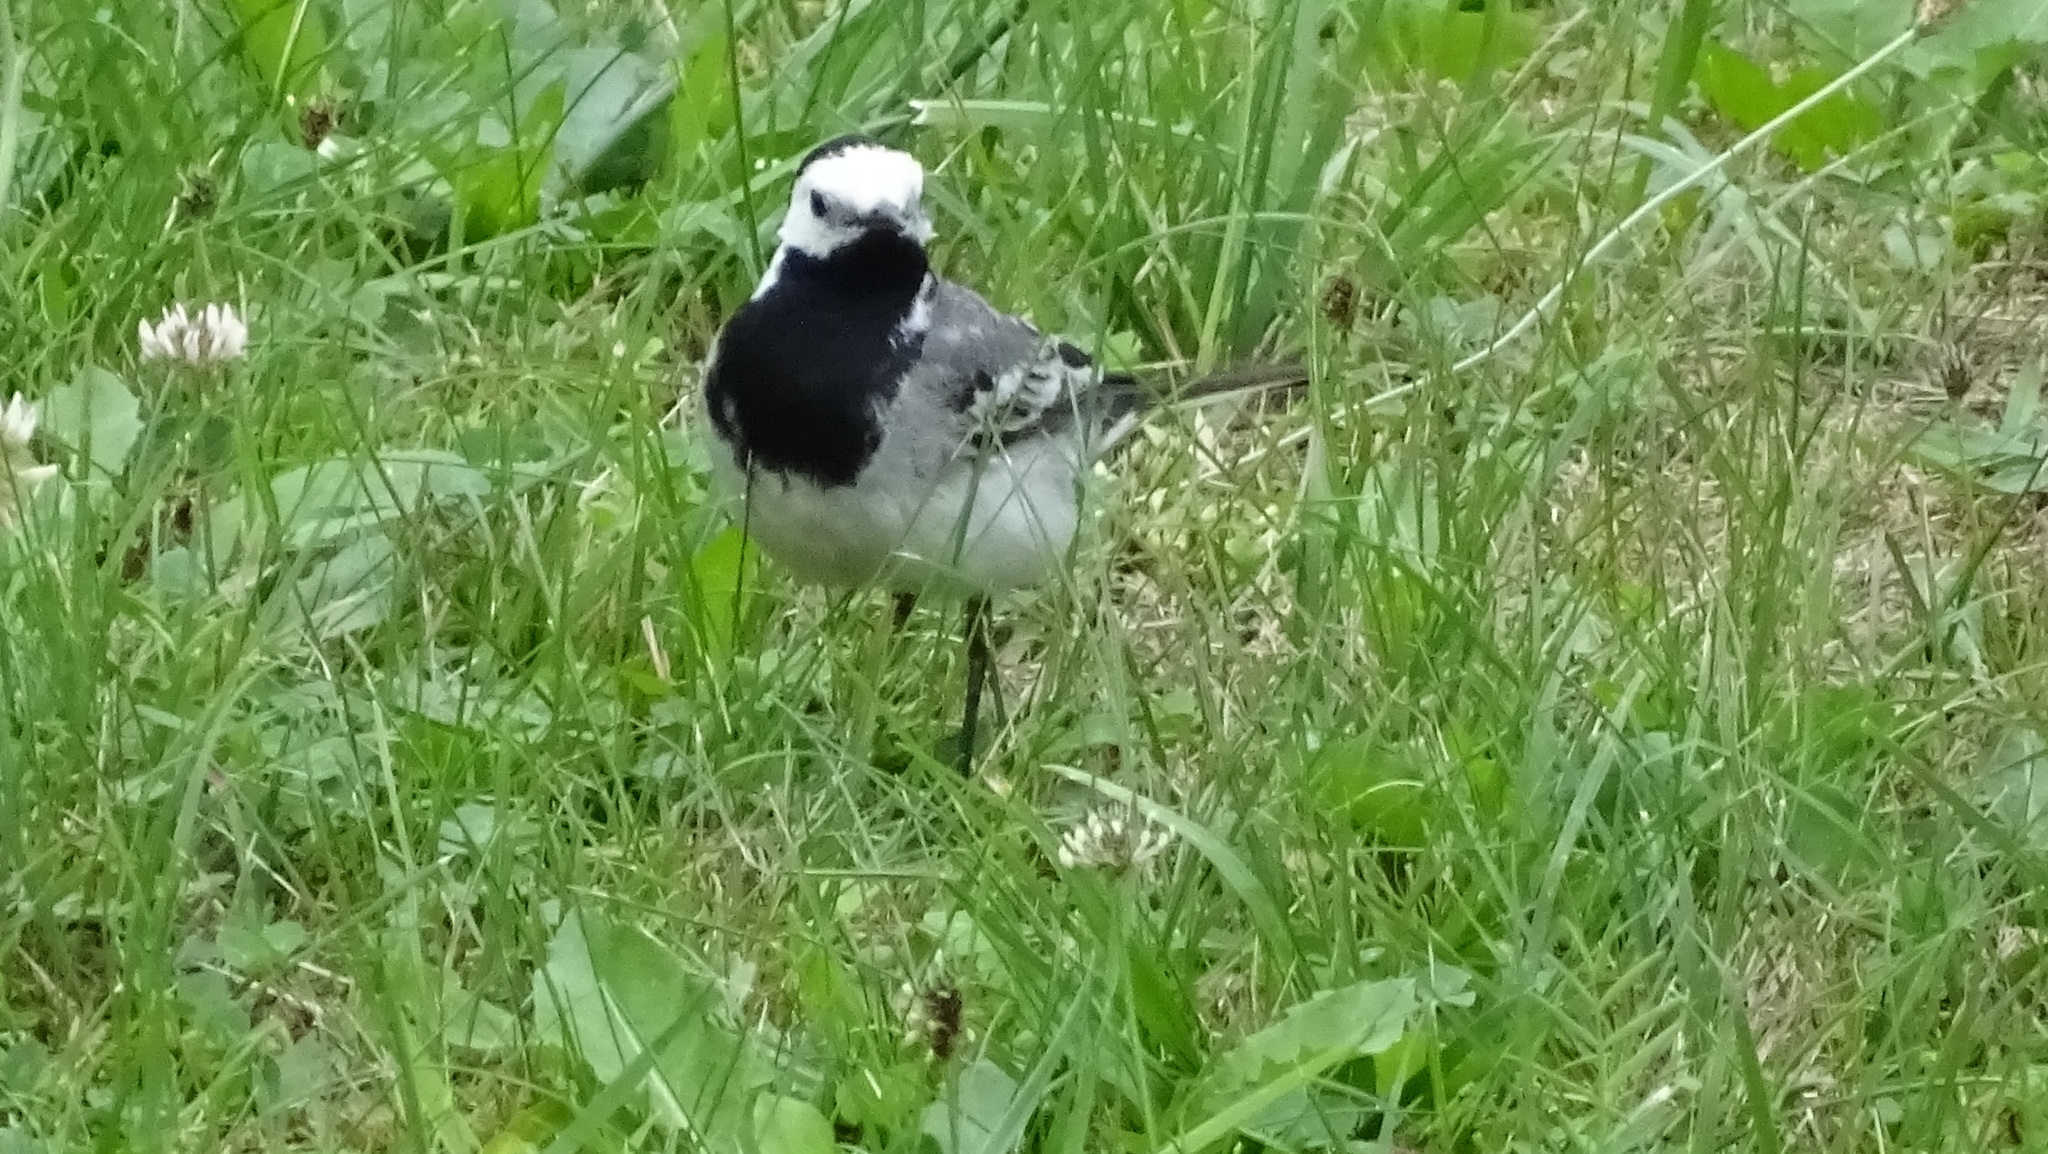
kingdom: Animalia
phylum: Chordata
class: Aves
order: Passeriformes
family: Motacillidae
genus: Motacilla
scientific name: Motacilla alba
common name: White wagtail
